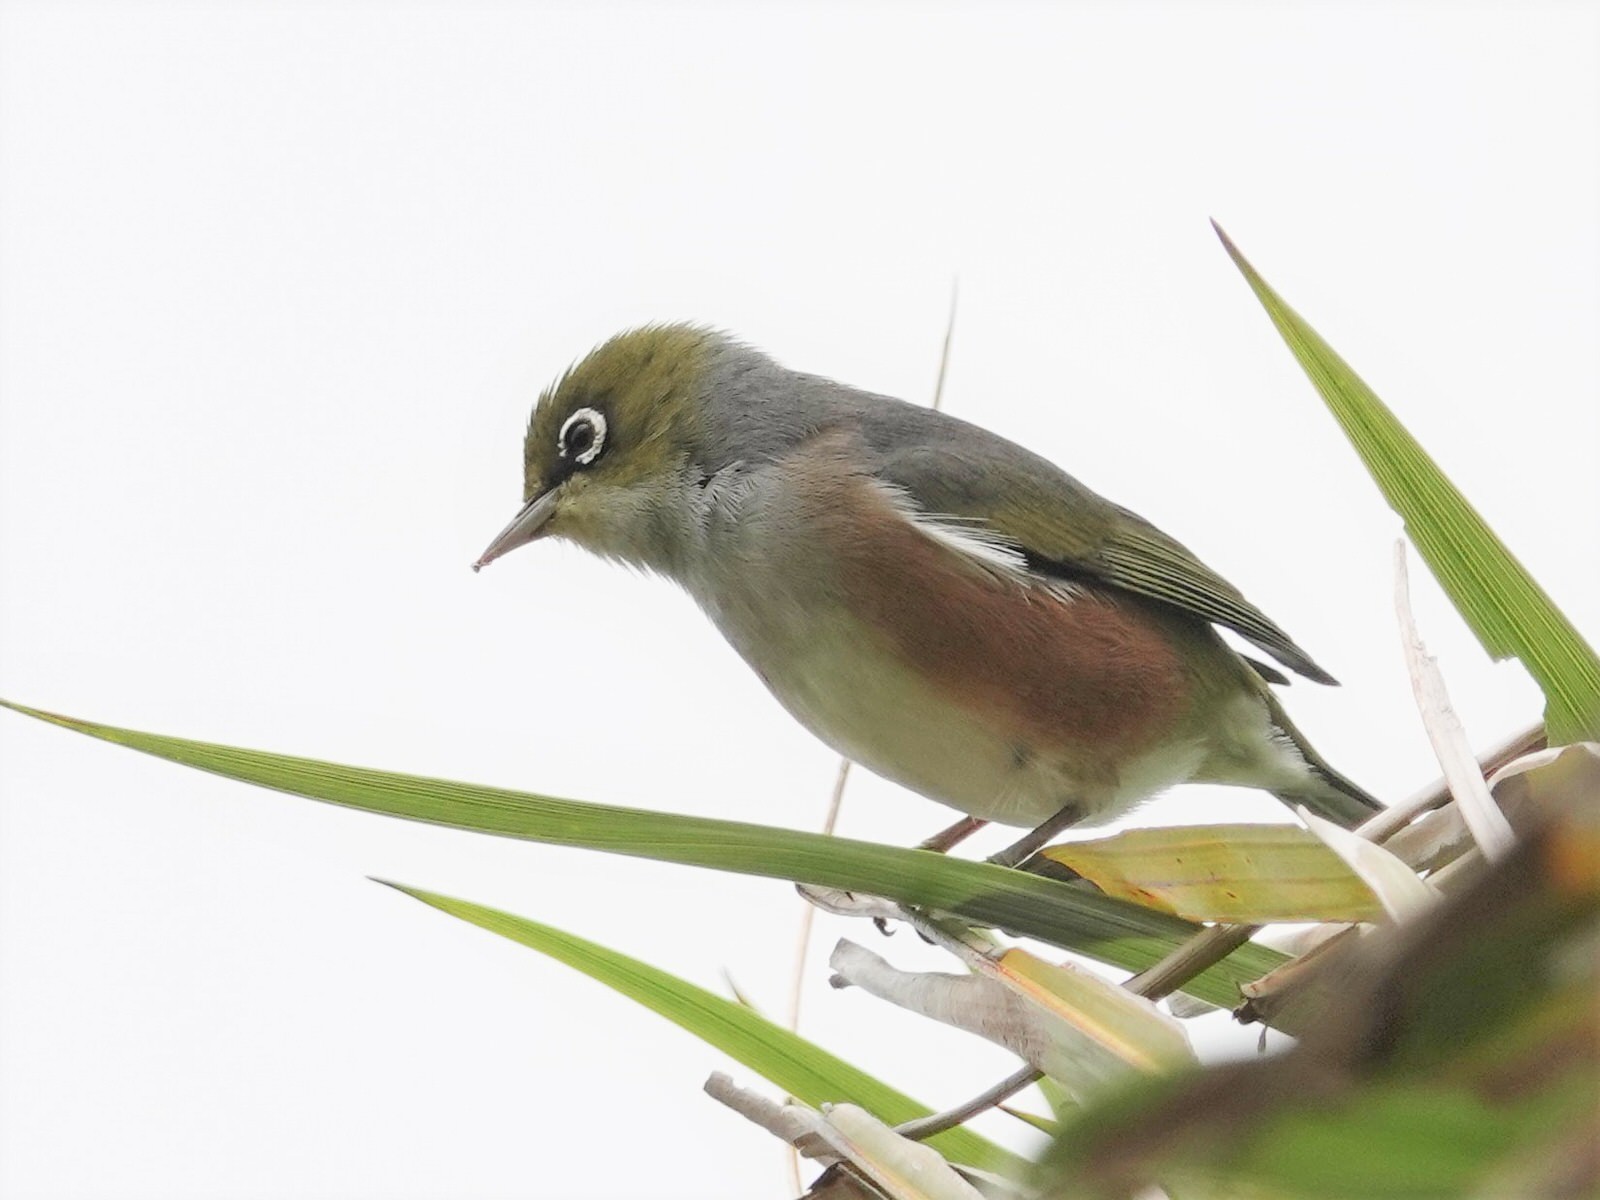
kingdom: Animalia
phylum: Chordata
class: Aves
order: Passeriformes
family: Zosteropidae
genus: Zosterops
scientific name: Zosterops lateralis
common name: Silvereye
